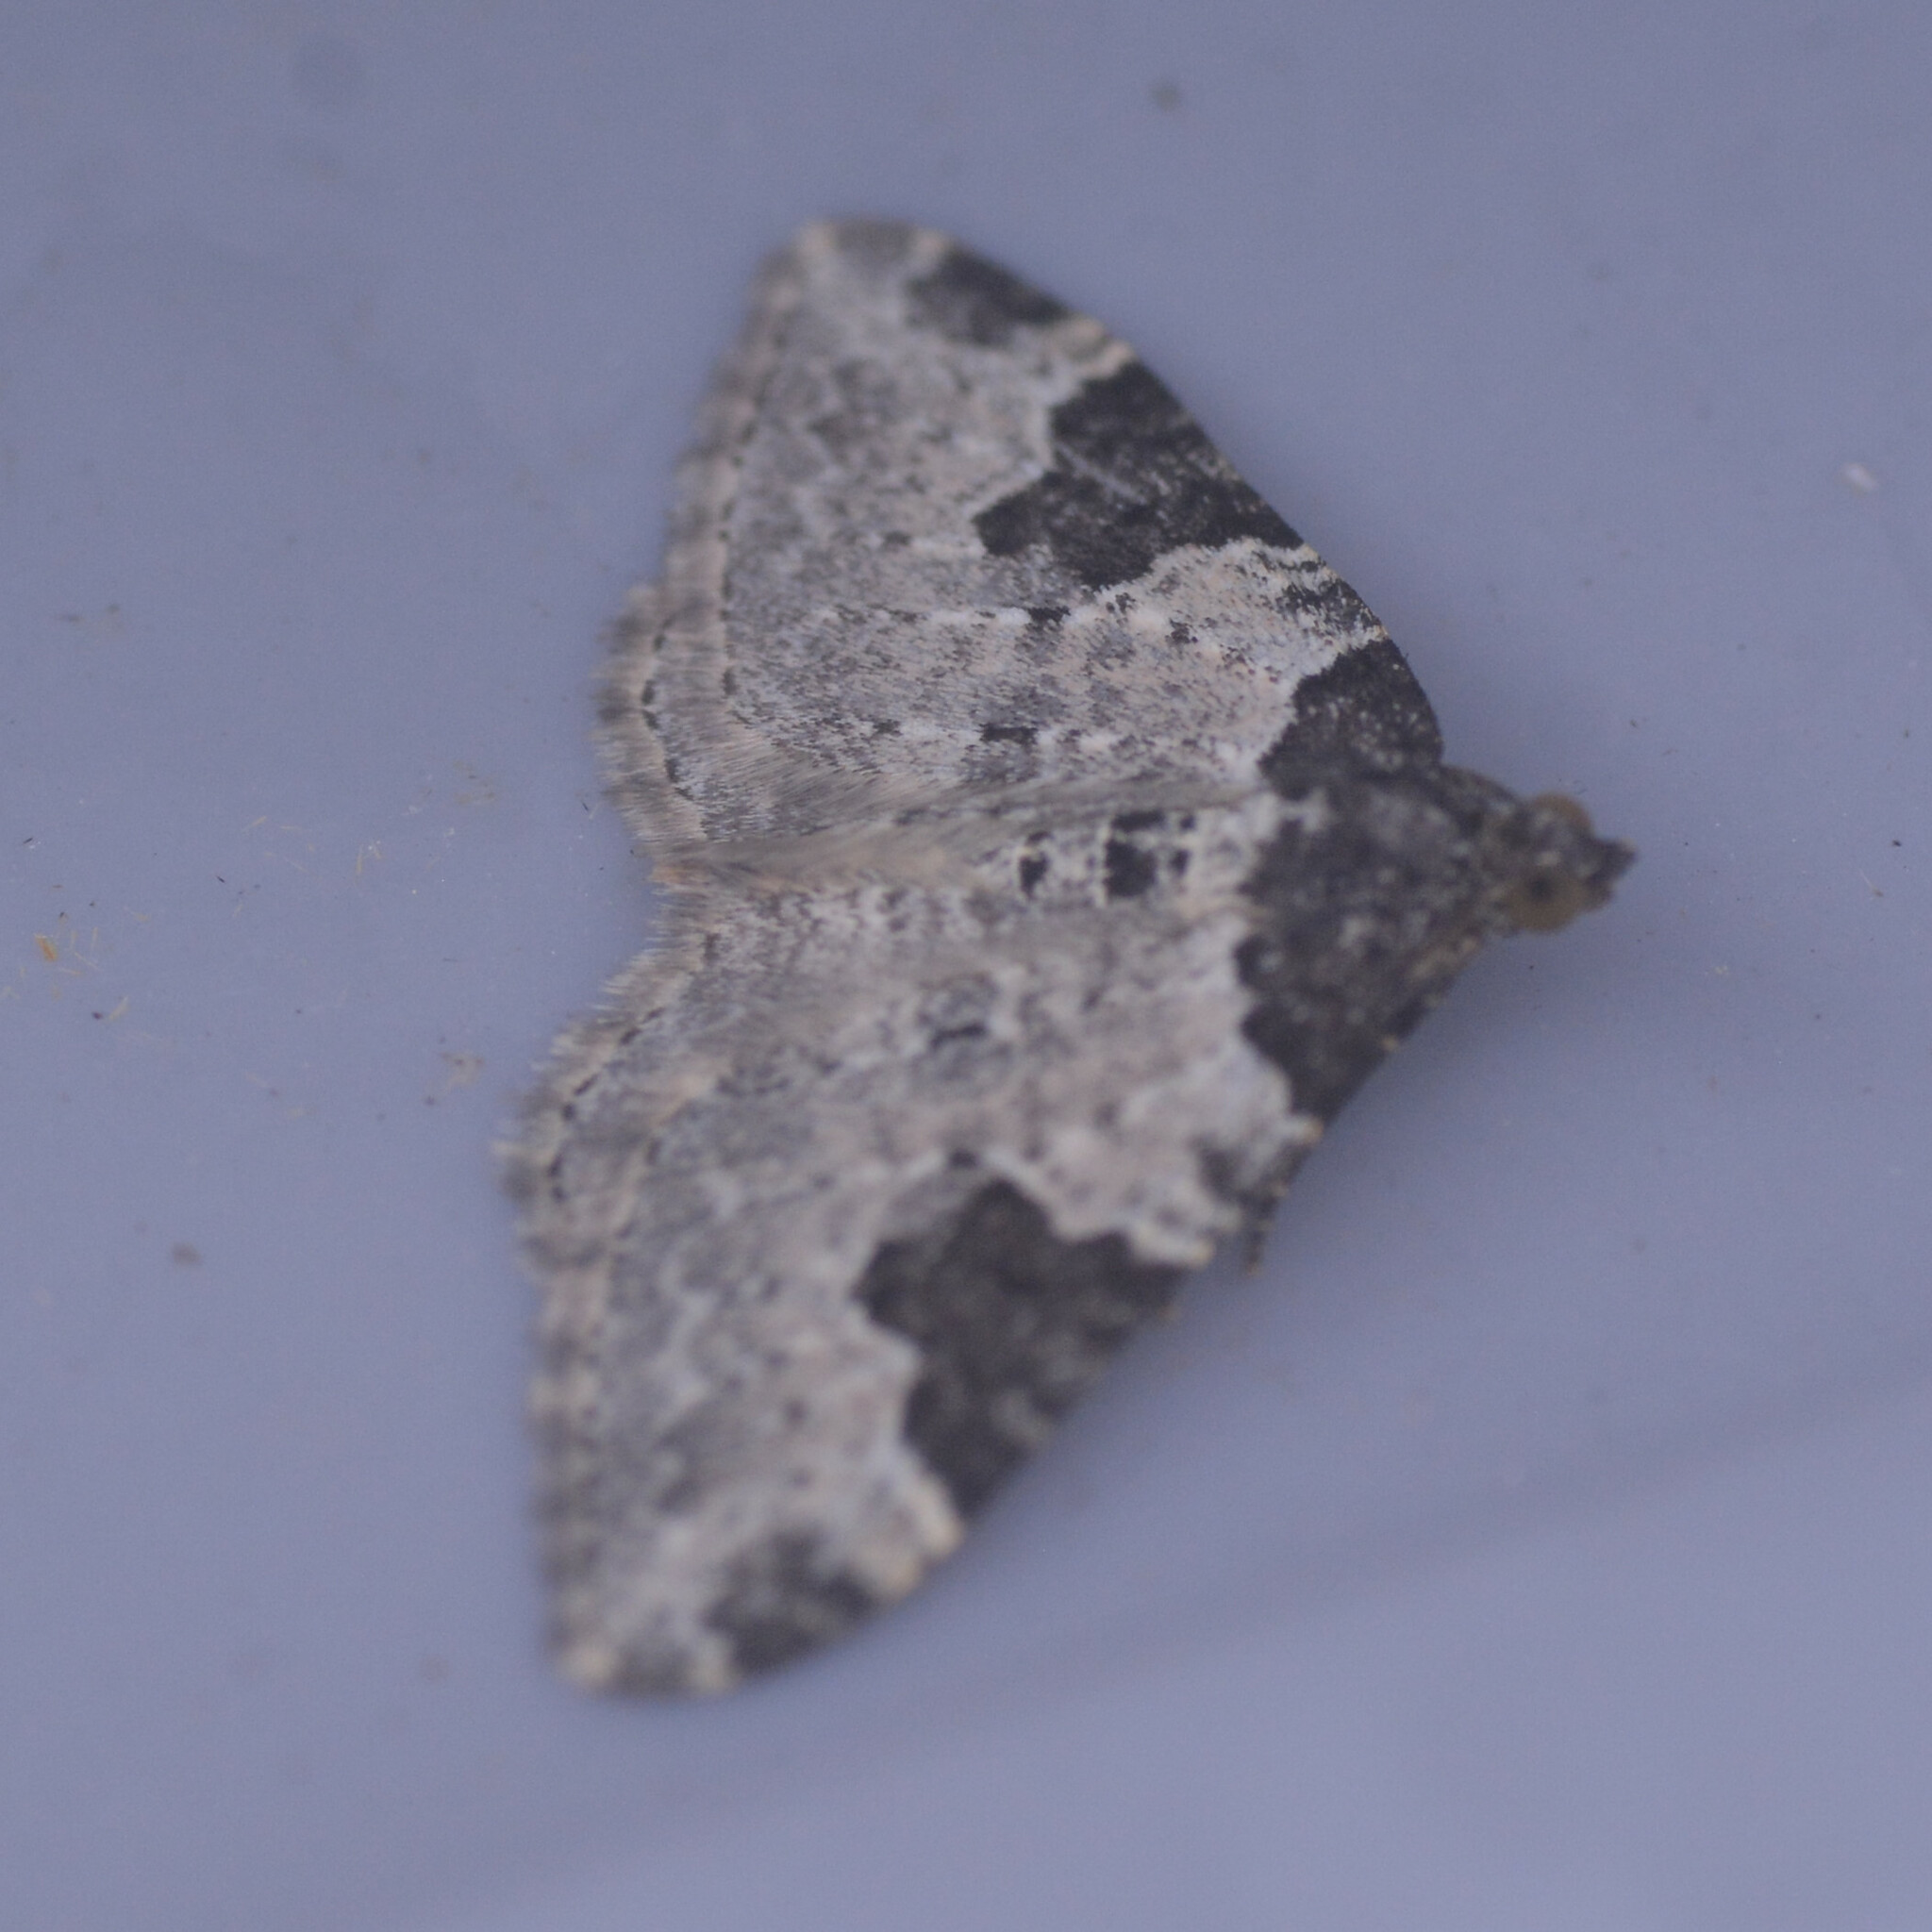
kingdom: Animalia
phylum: Arthropoda
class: Insecta
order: Lepidoptera
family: Geometridae
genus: Xanthorhoe
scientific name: Xanthorhoe fluctuata
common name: Garden carpet
